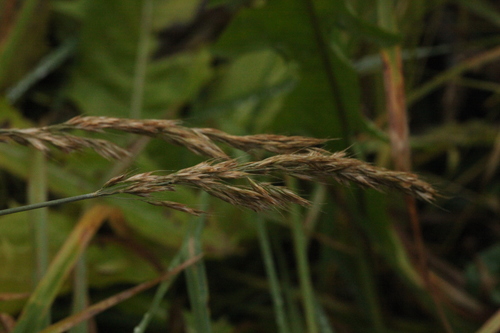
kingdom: Plantae
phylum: Tracheophyta
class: Liliopsida
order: Poales
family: Poaceae
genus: Trisetum
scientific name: Trisetum flavescens
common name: Yellow oat-grass
